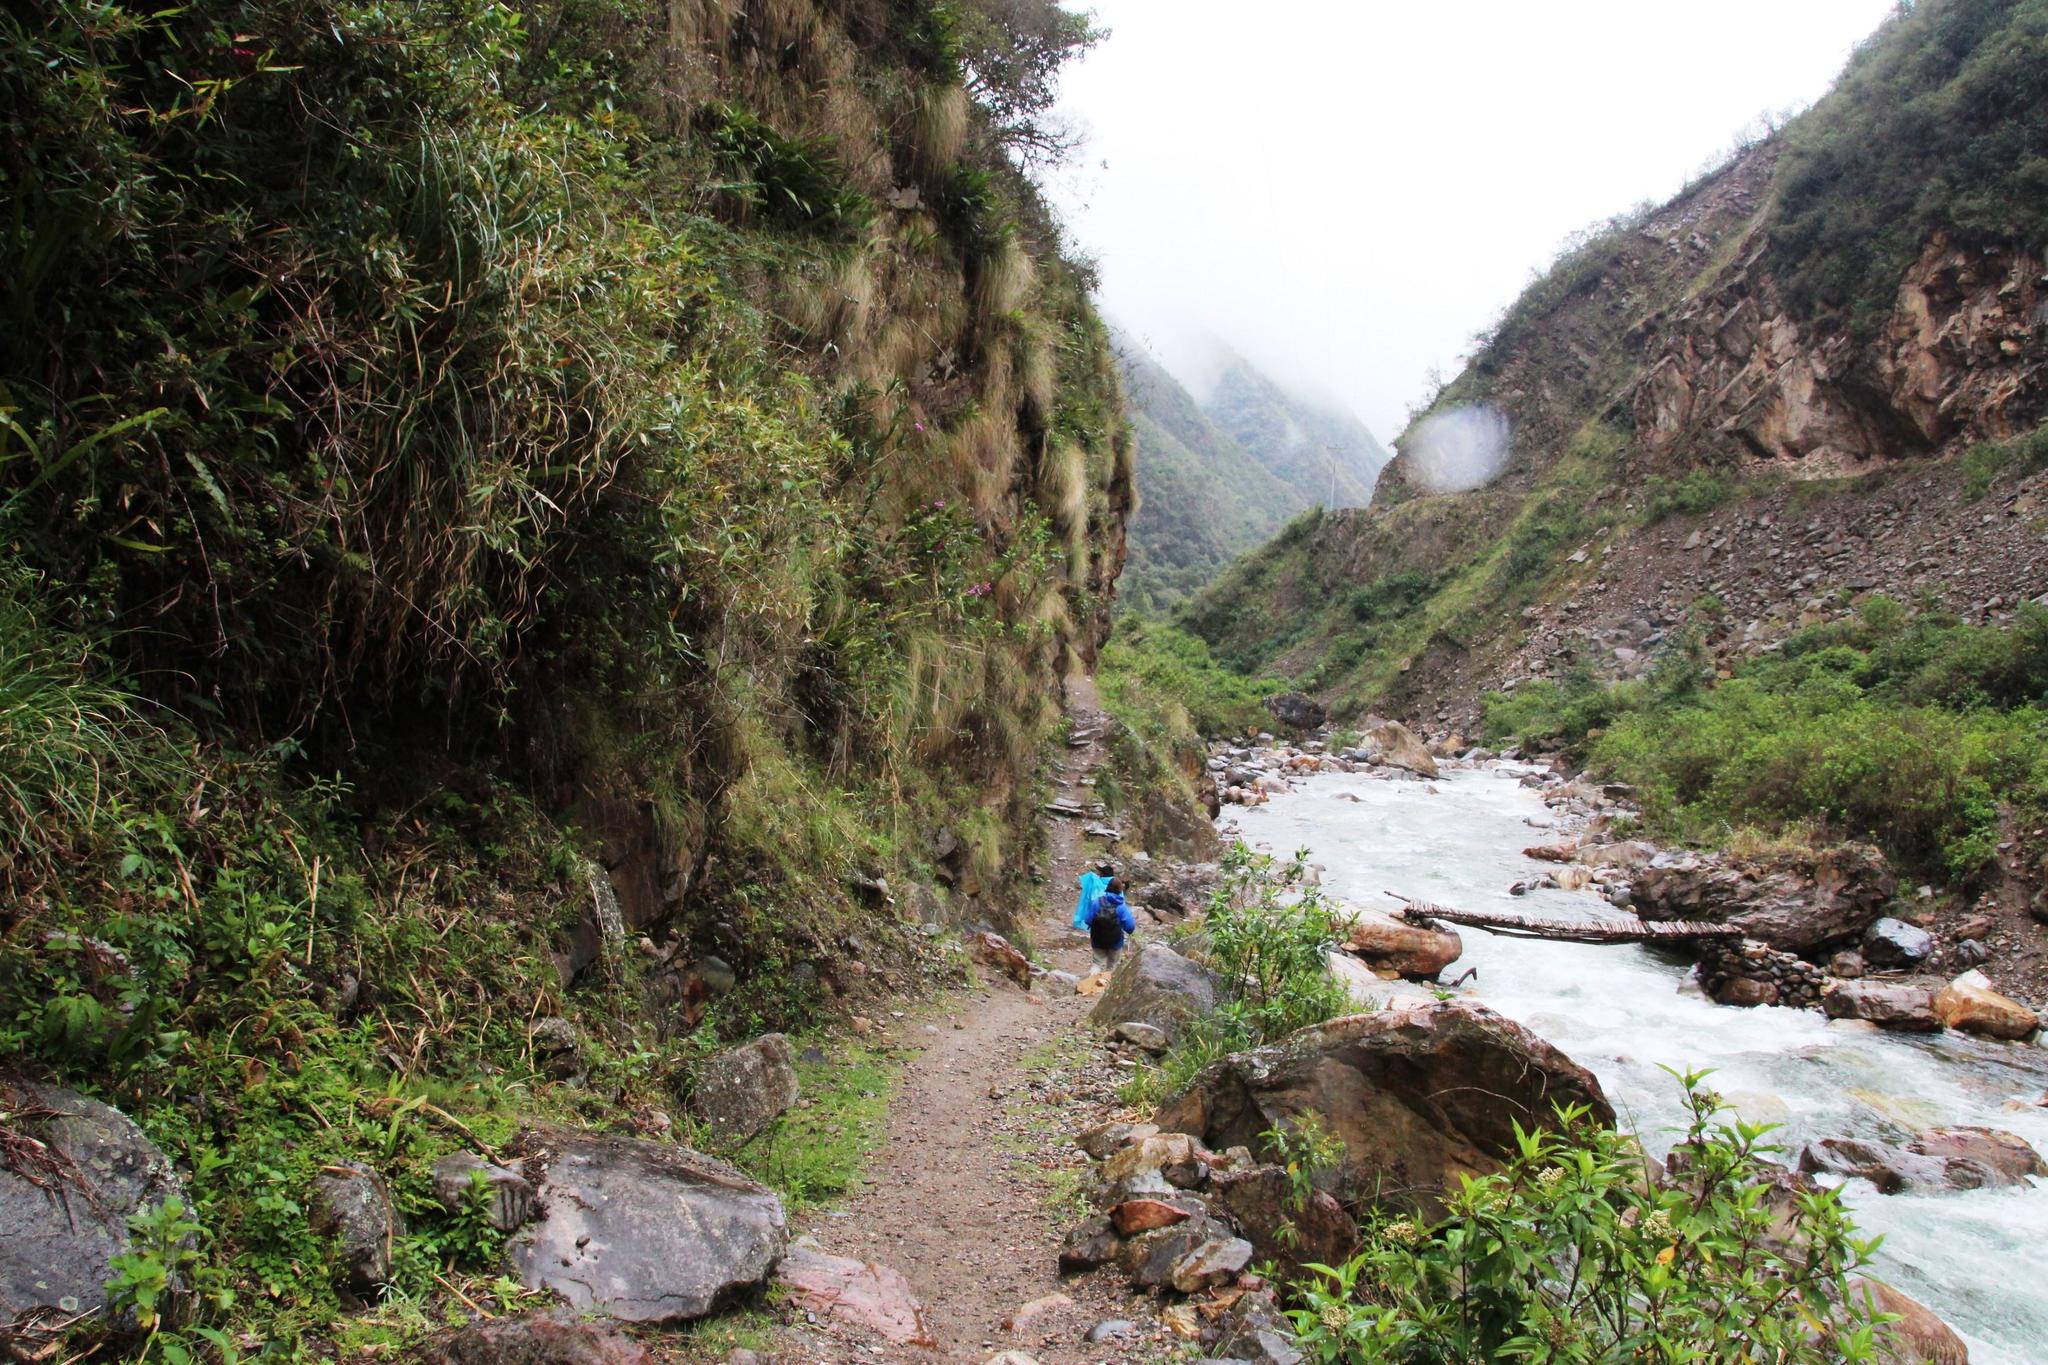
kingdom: Plantae
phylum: Tracheophyta
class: Liliopsida
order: Asparagales
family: Orchidaceae
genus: Ida
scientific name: Ida ciliata
